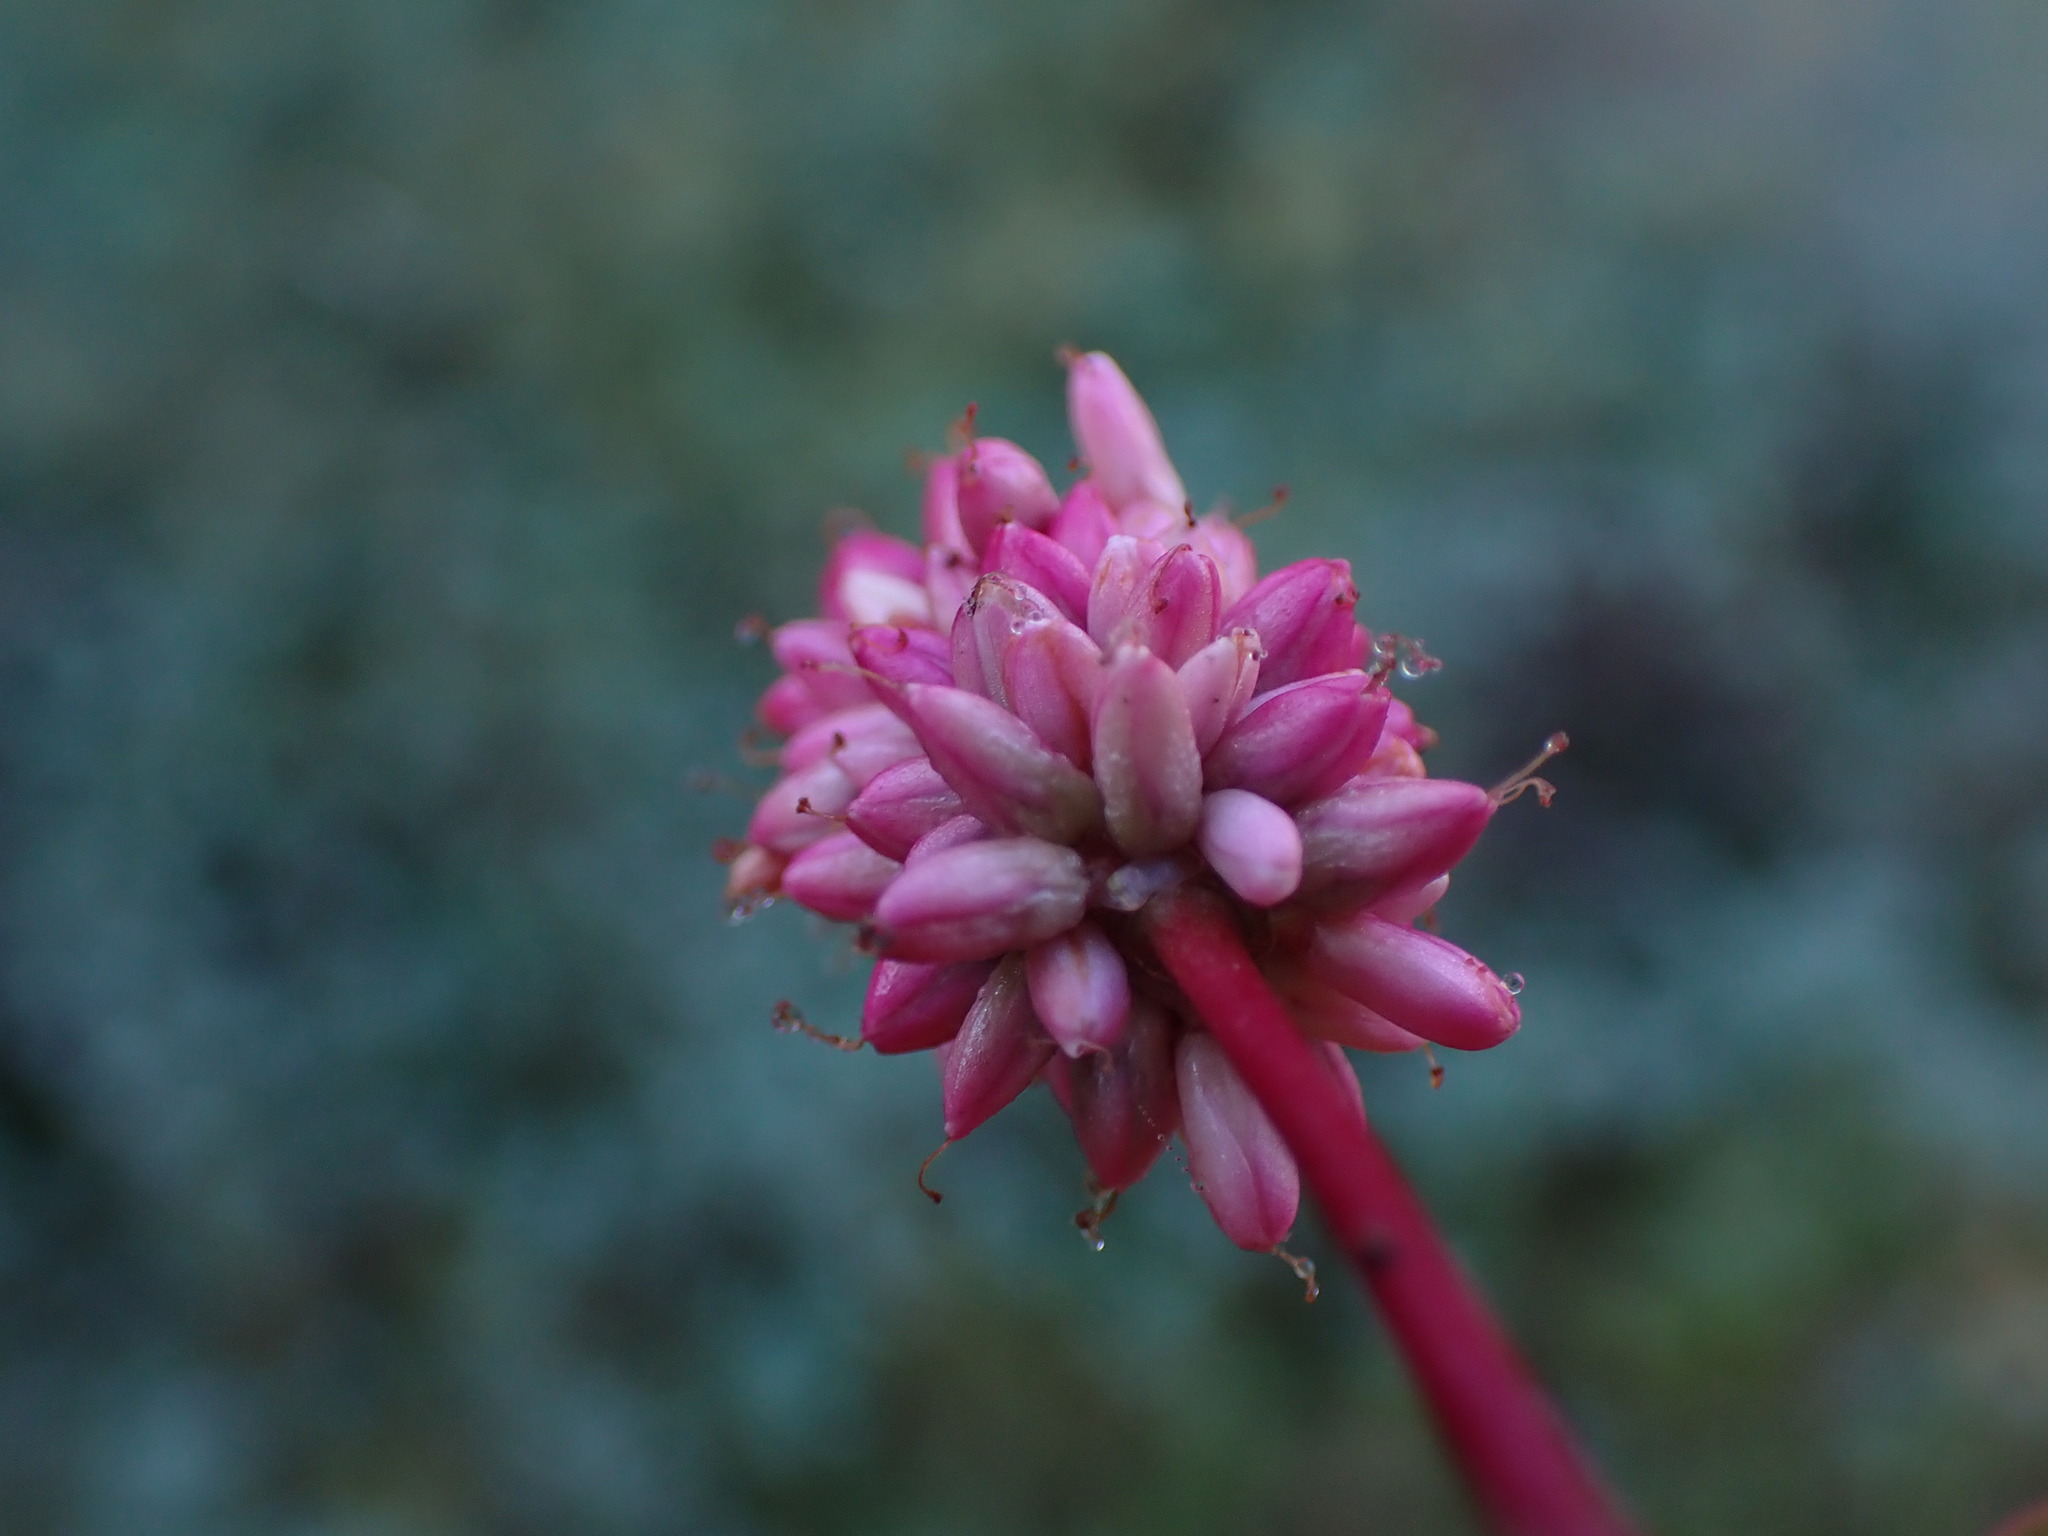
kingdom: Plantae
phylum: Tracheophyta
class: Magnoliopsida
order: Caryophyllales
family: Polygonaceae
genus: Persicaria
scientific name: Persicaria amphibia
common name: Amphibious bistort
